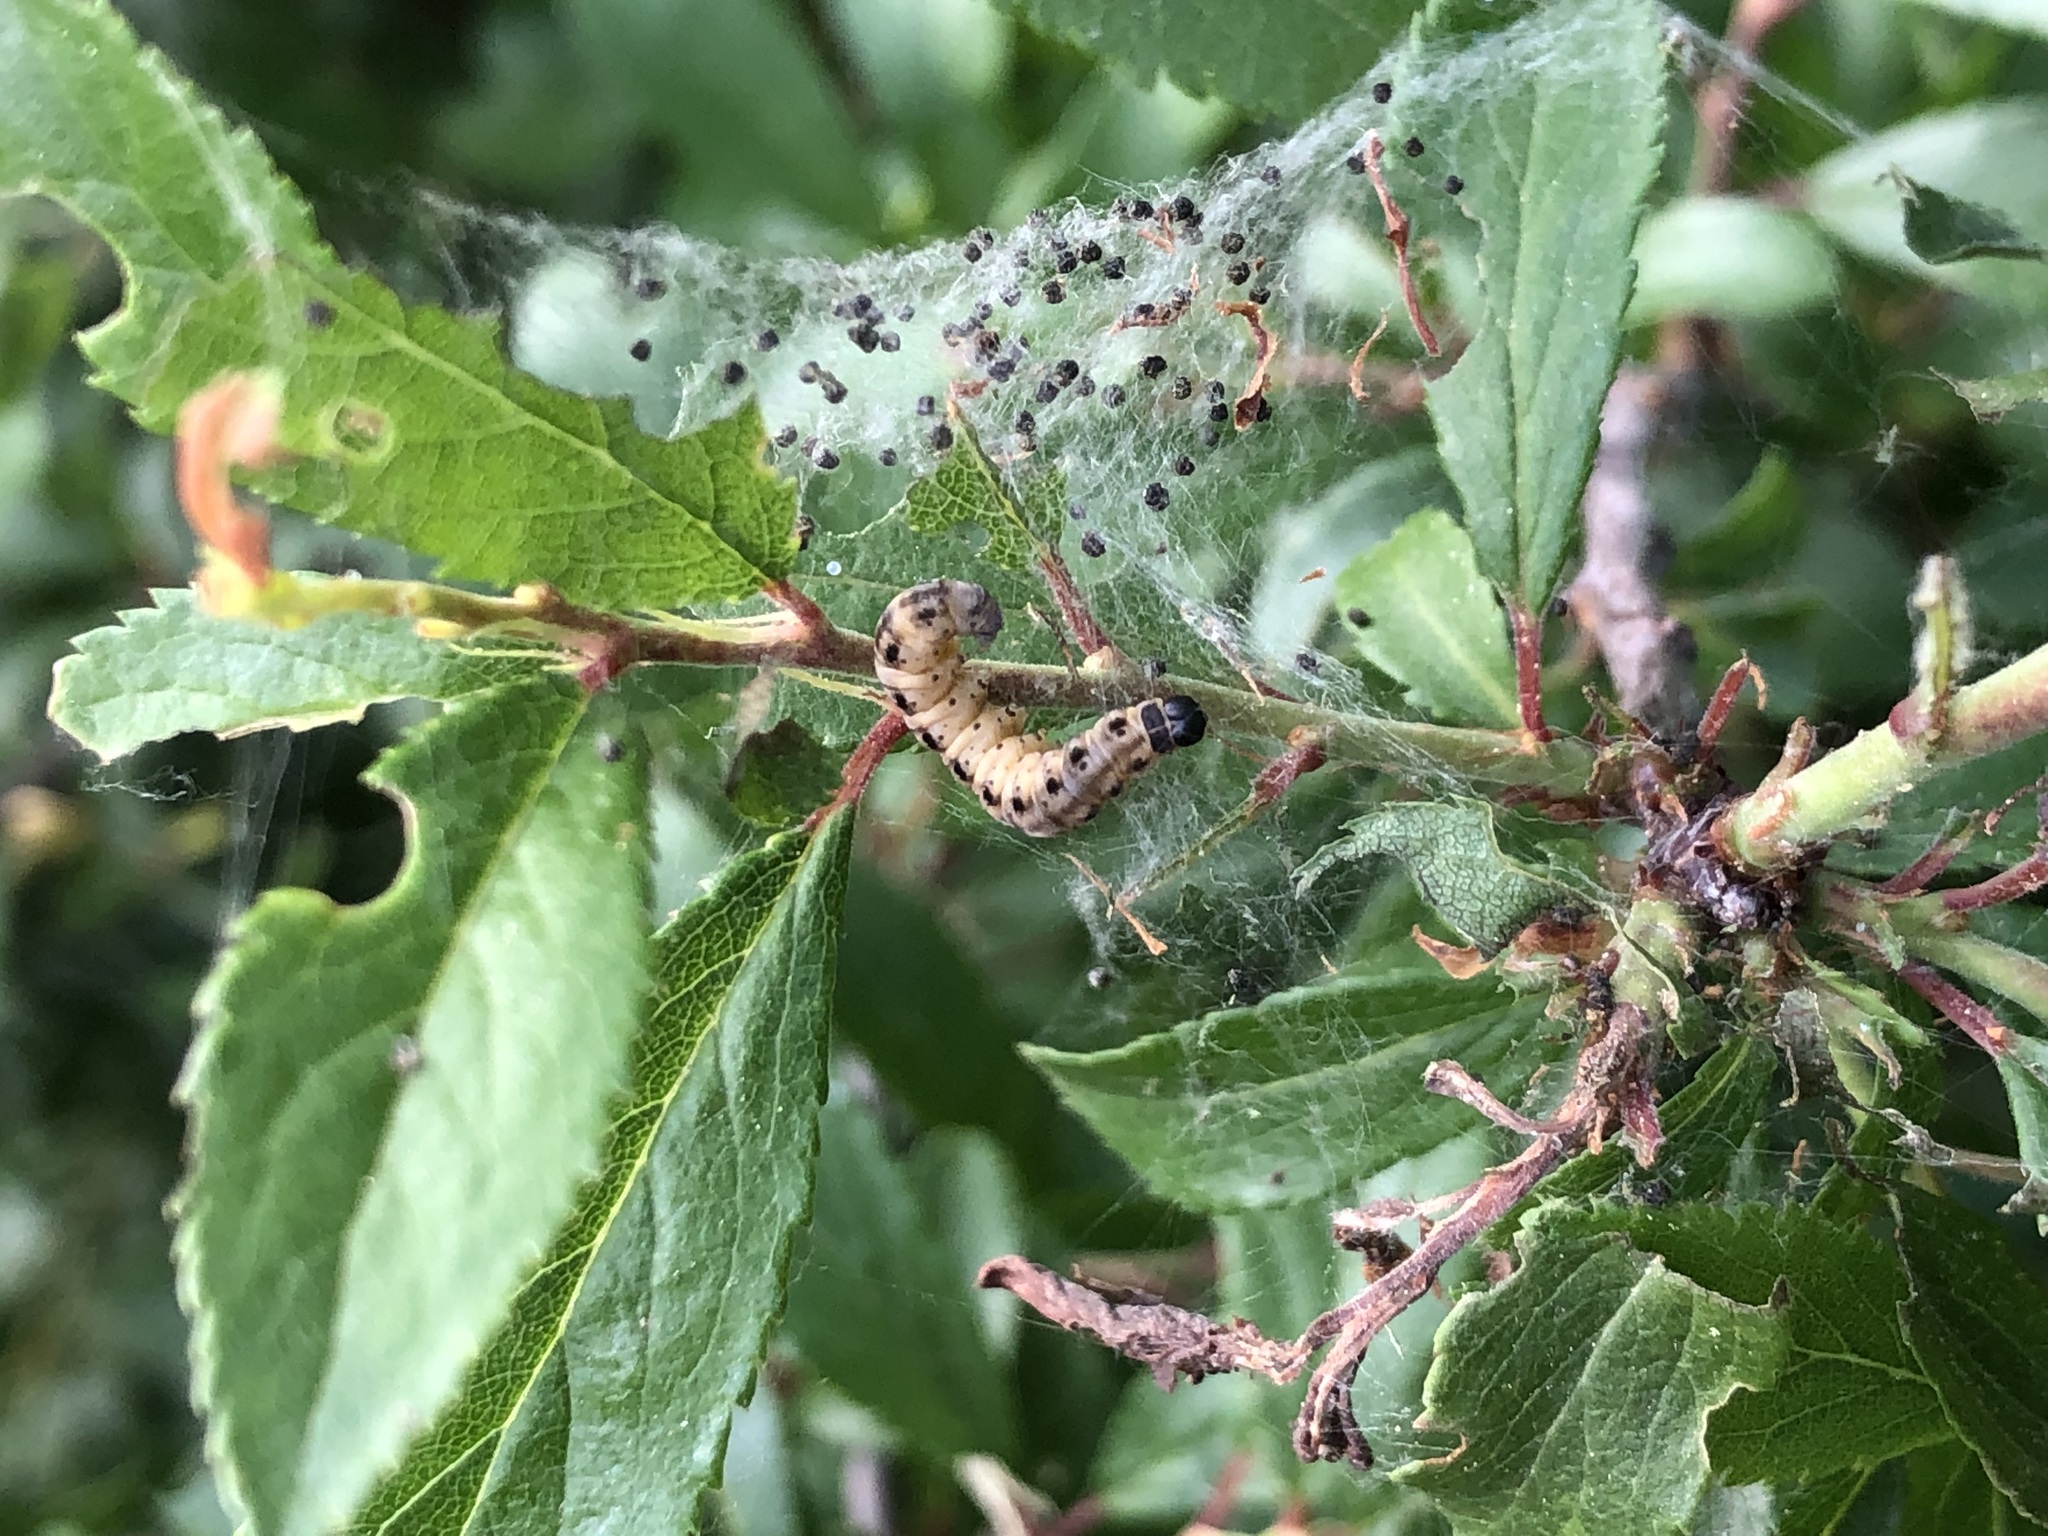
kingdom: Animalia
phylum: Arthropoda
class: Insecta
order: Lepidoptera
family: Yponomeutidae
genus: Yponomeuta
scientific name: Yponomeuta padella
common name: Orchard ermine
